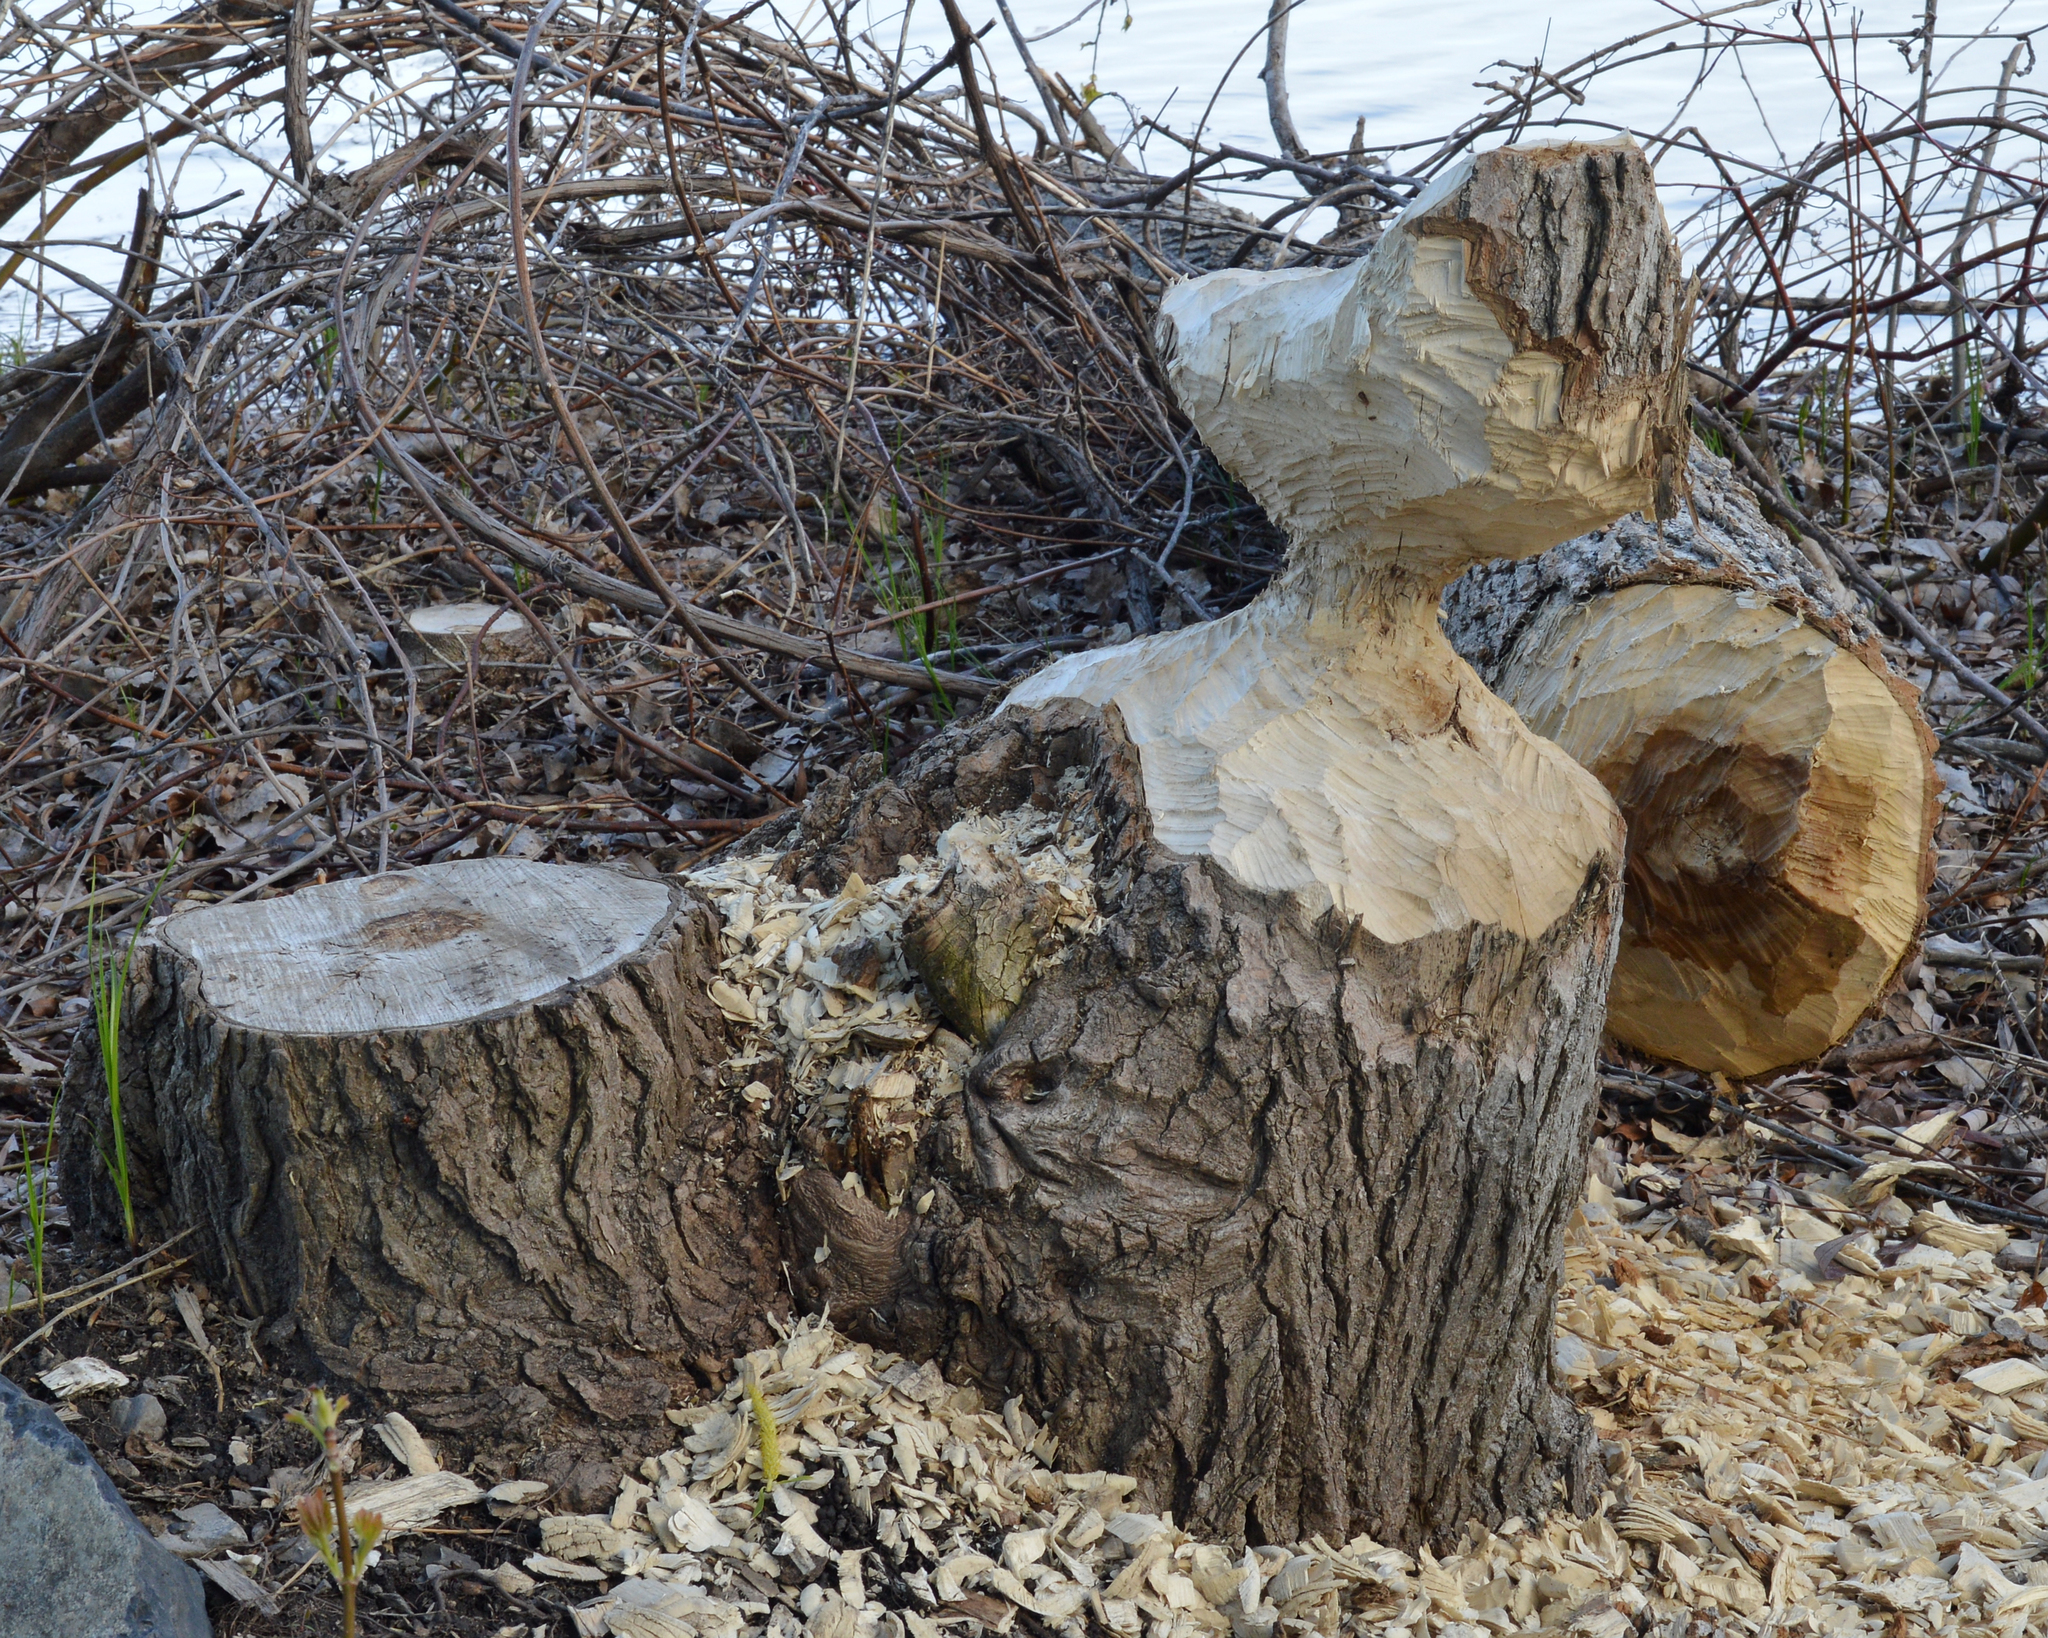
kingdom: Animalia
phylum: Chordata
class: Mammalia
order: Rodentia
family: Castoridae
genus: Castor
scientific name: Castor canadensis
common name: American beaver
